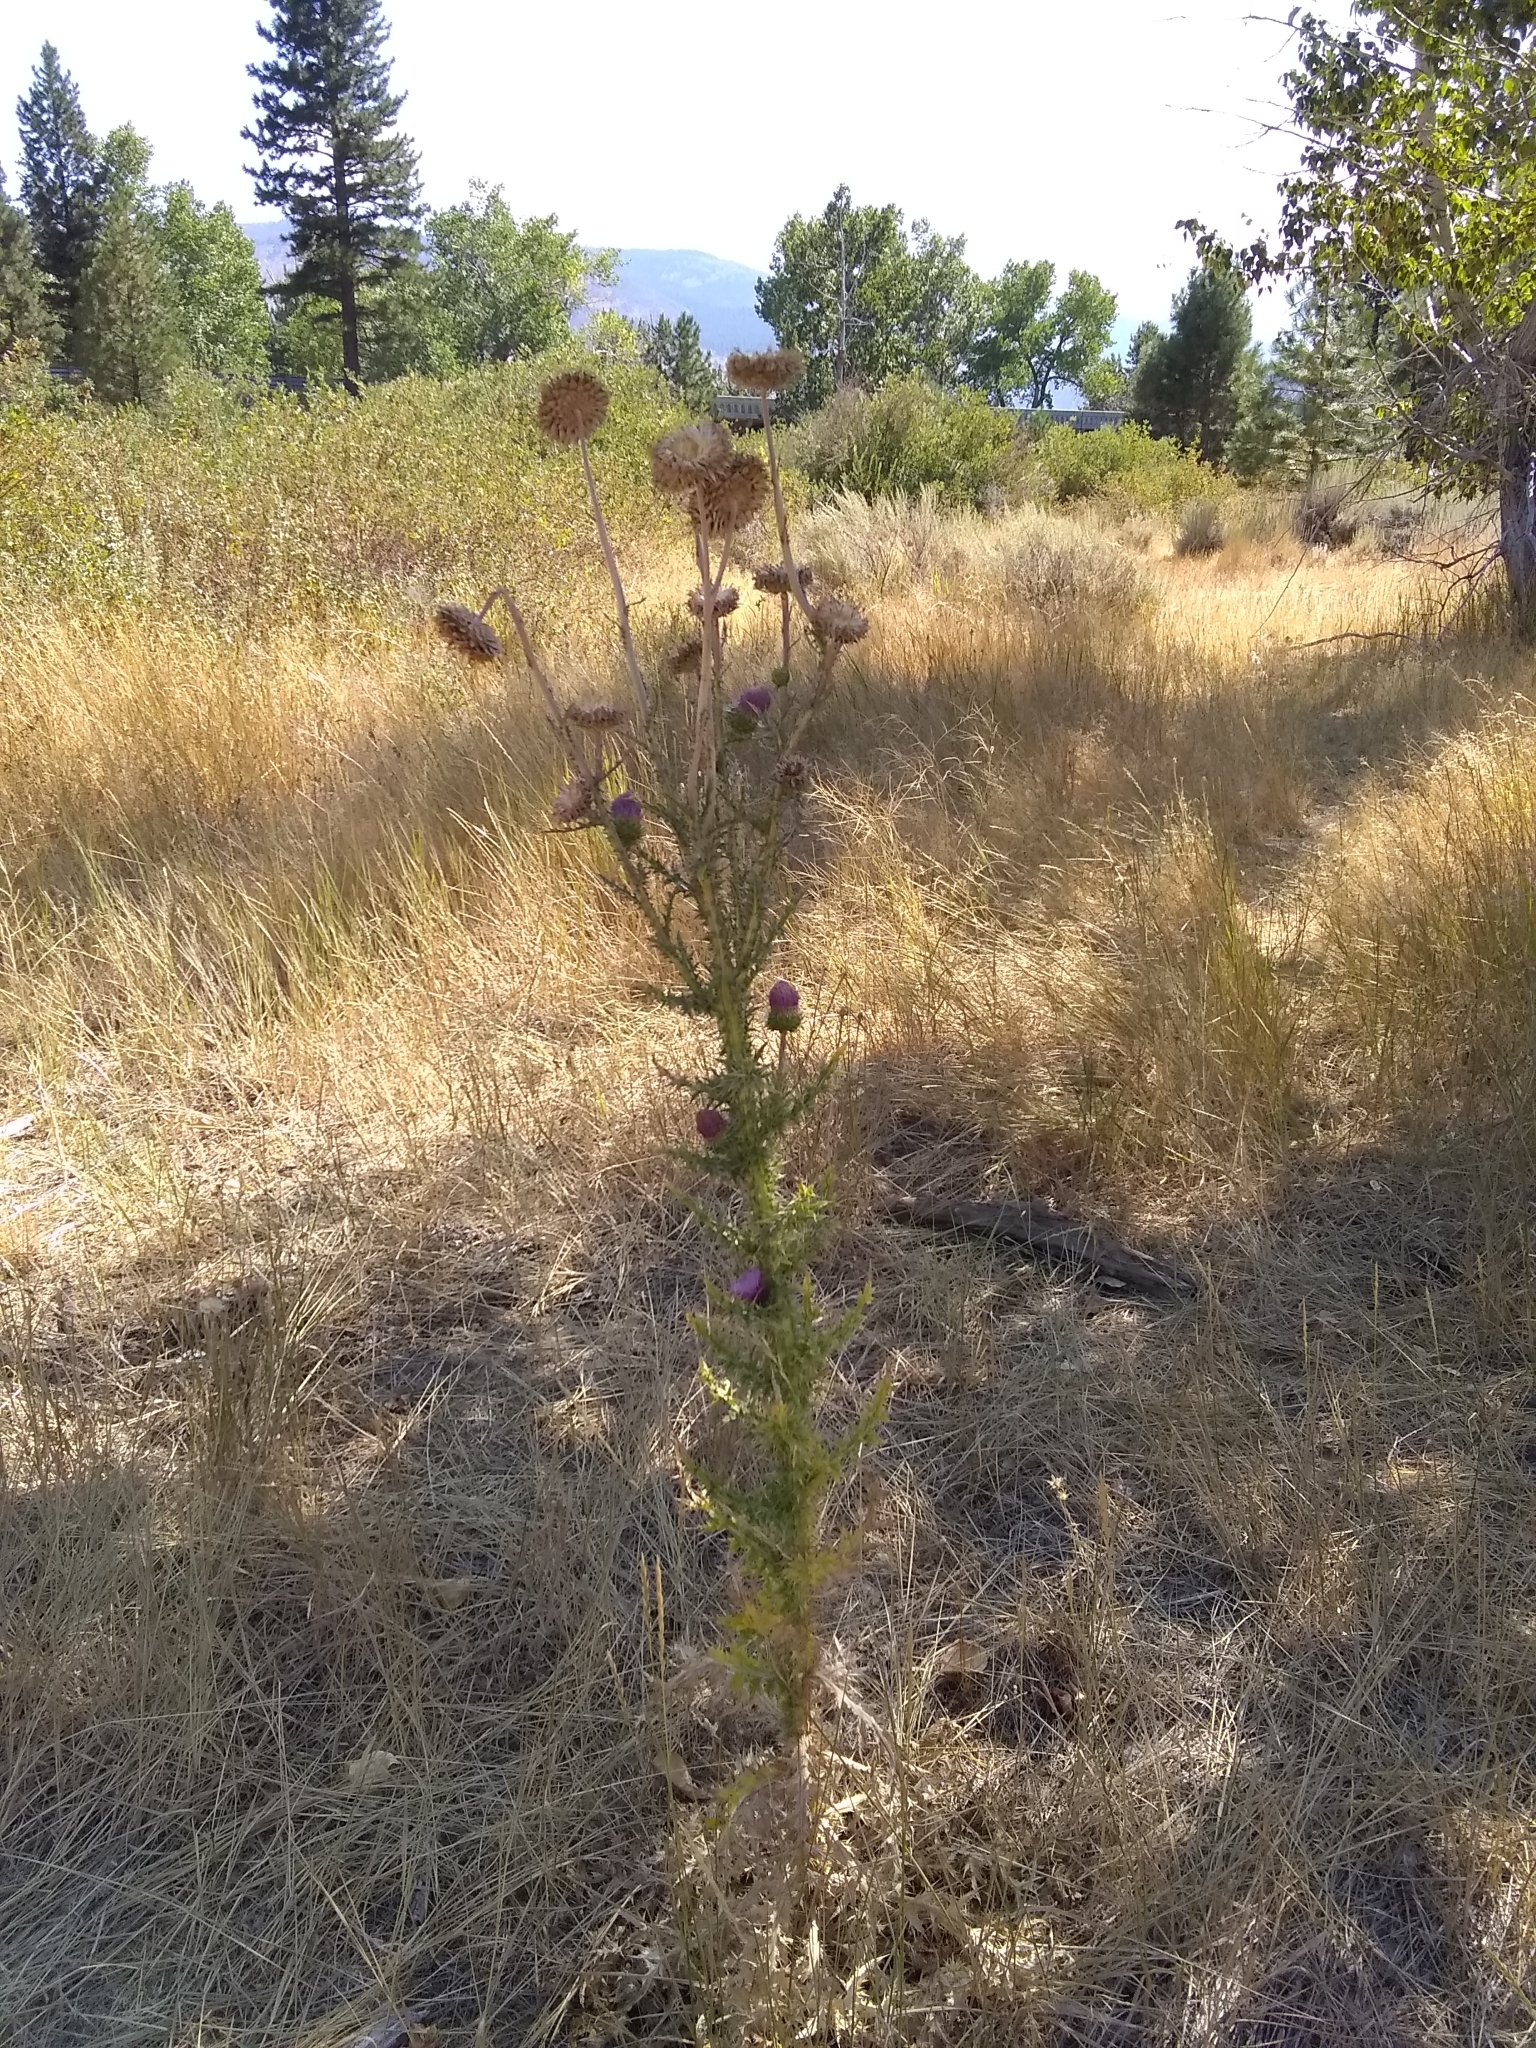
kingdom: Plantae
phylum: Tracheophyta
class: Magnoliopsida
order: Asterales
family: Asteraceae
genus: Carduus
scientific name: Carduus nutans
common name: Musk thistle
